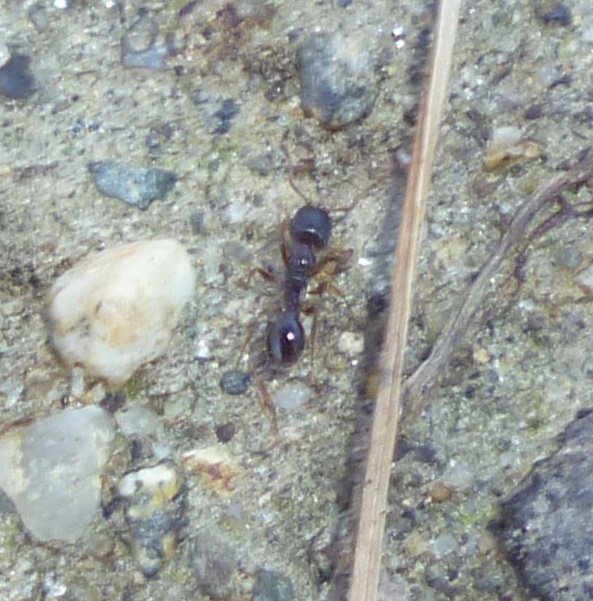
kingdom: Animalia
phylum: Arthropoda
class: Insecta
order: Hymenoptera
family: Formicidae
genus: Tetramorium
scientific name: Tetramorium immigrans
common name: Pavement ant
